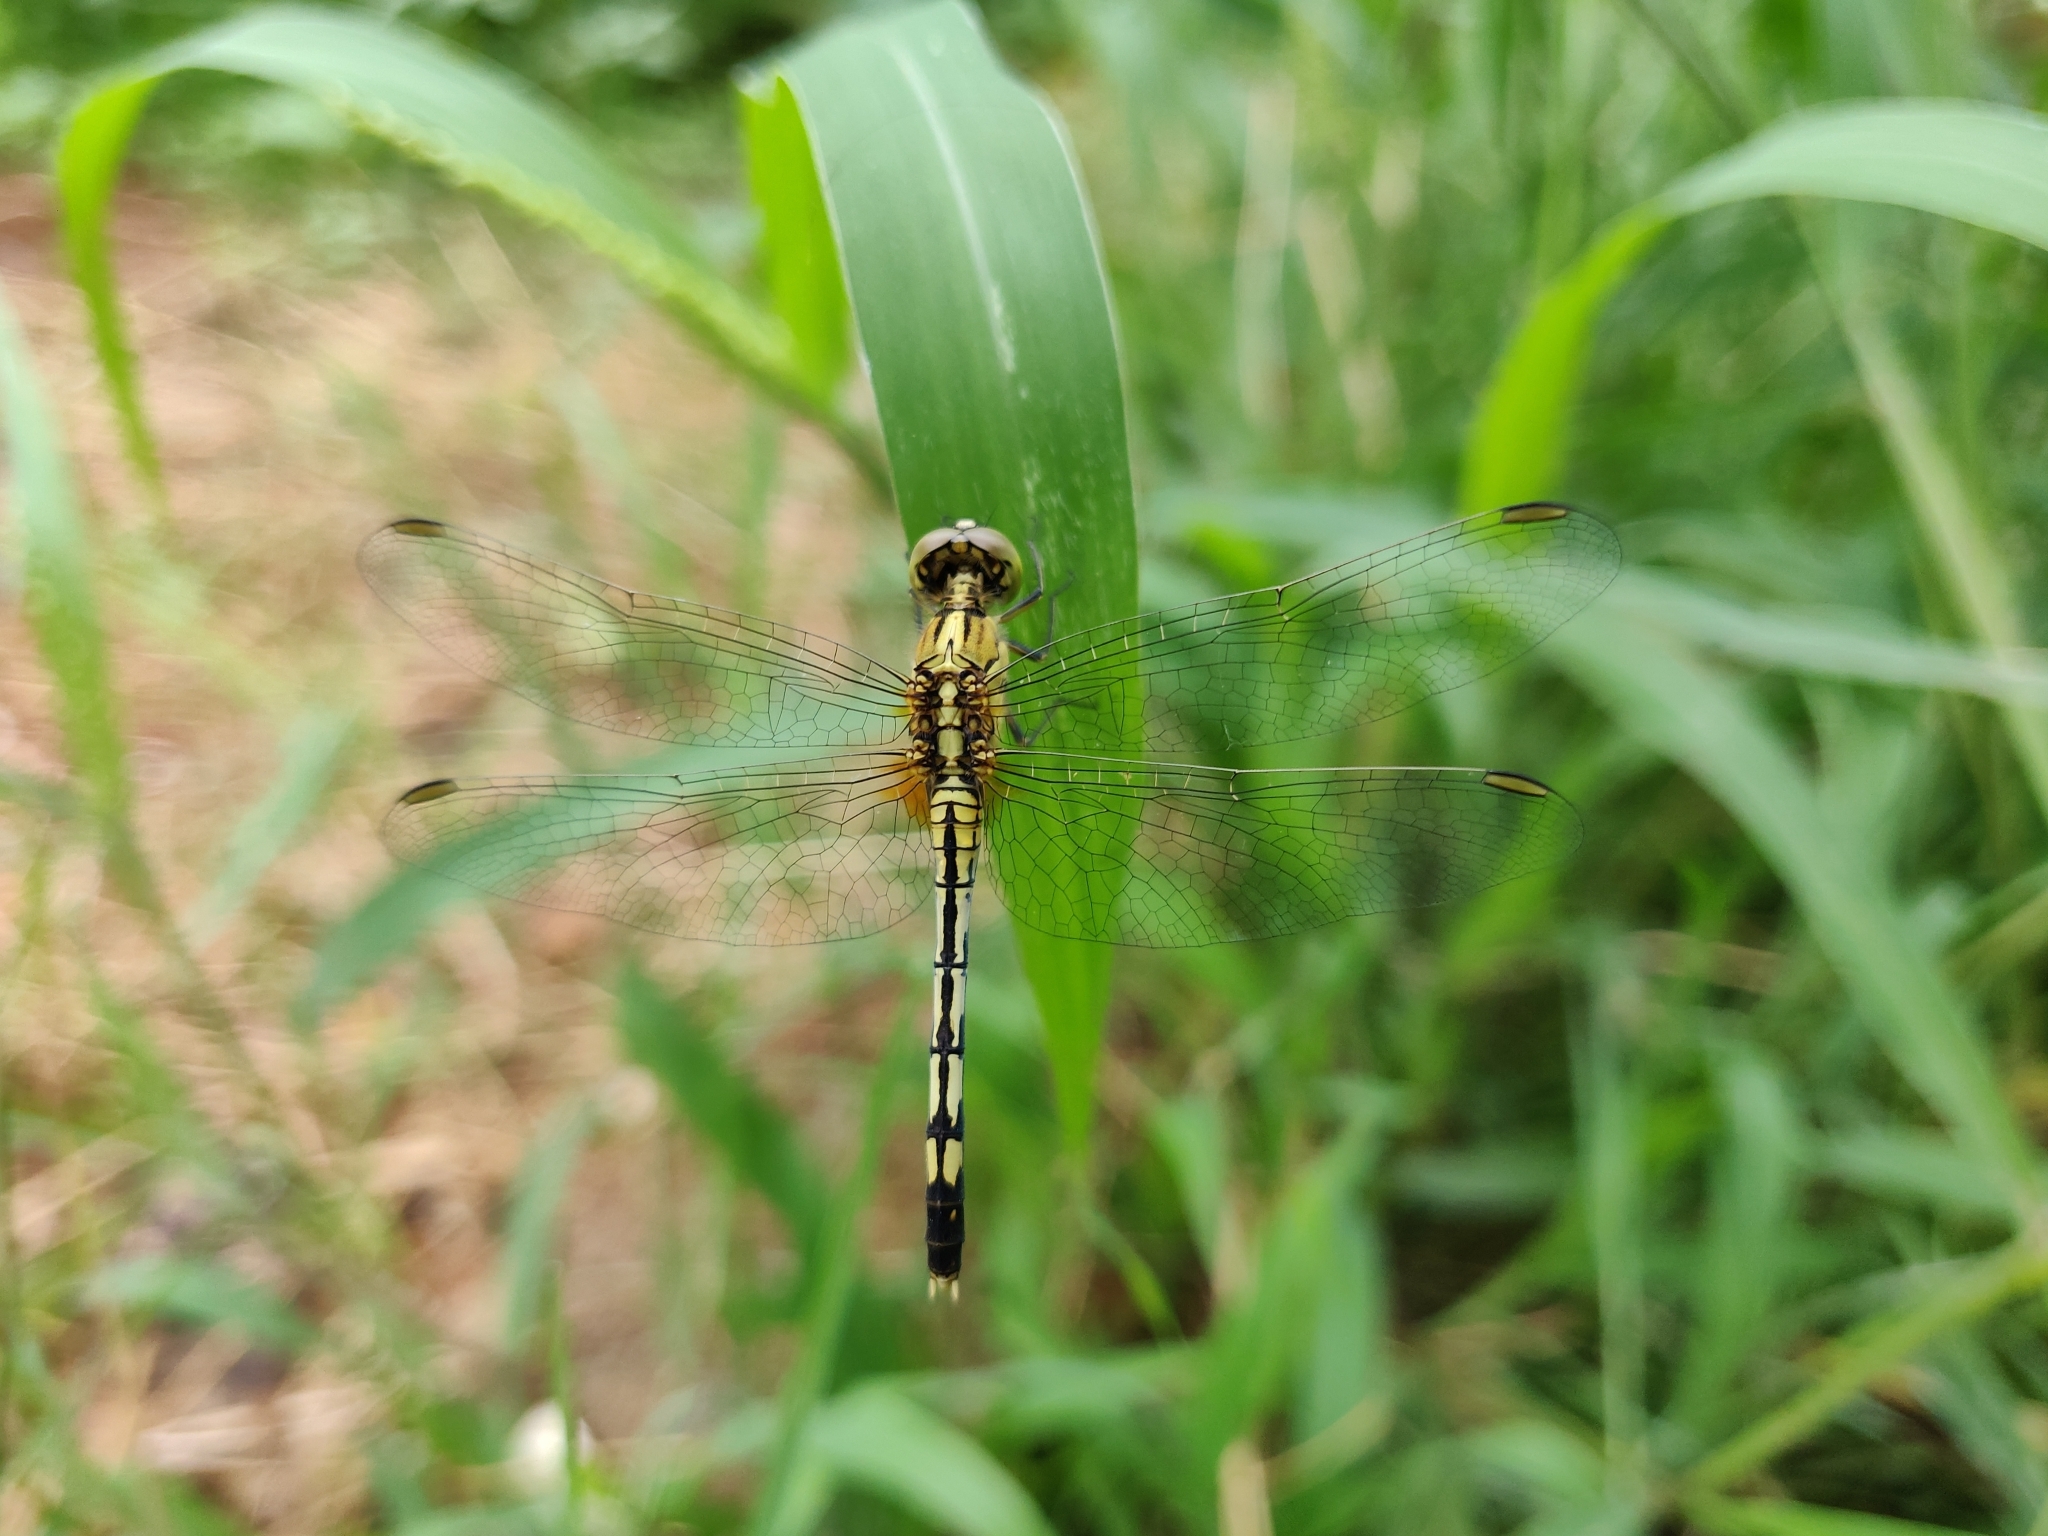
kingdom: Animalia
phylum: Arthropoda
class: Insecta
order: Odonata
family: Libellulidae
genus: Diplacodes
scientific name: Diplacodes trivialis
